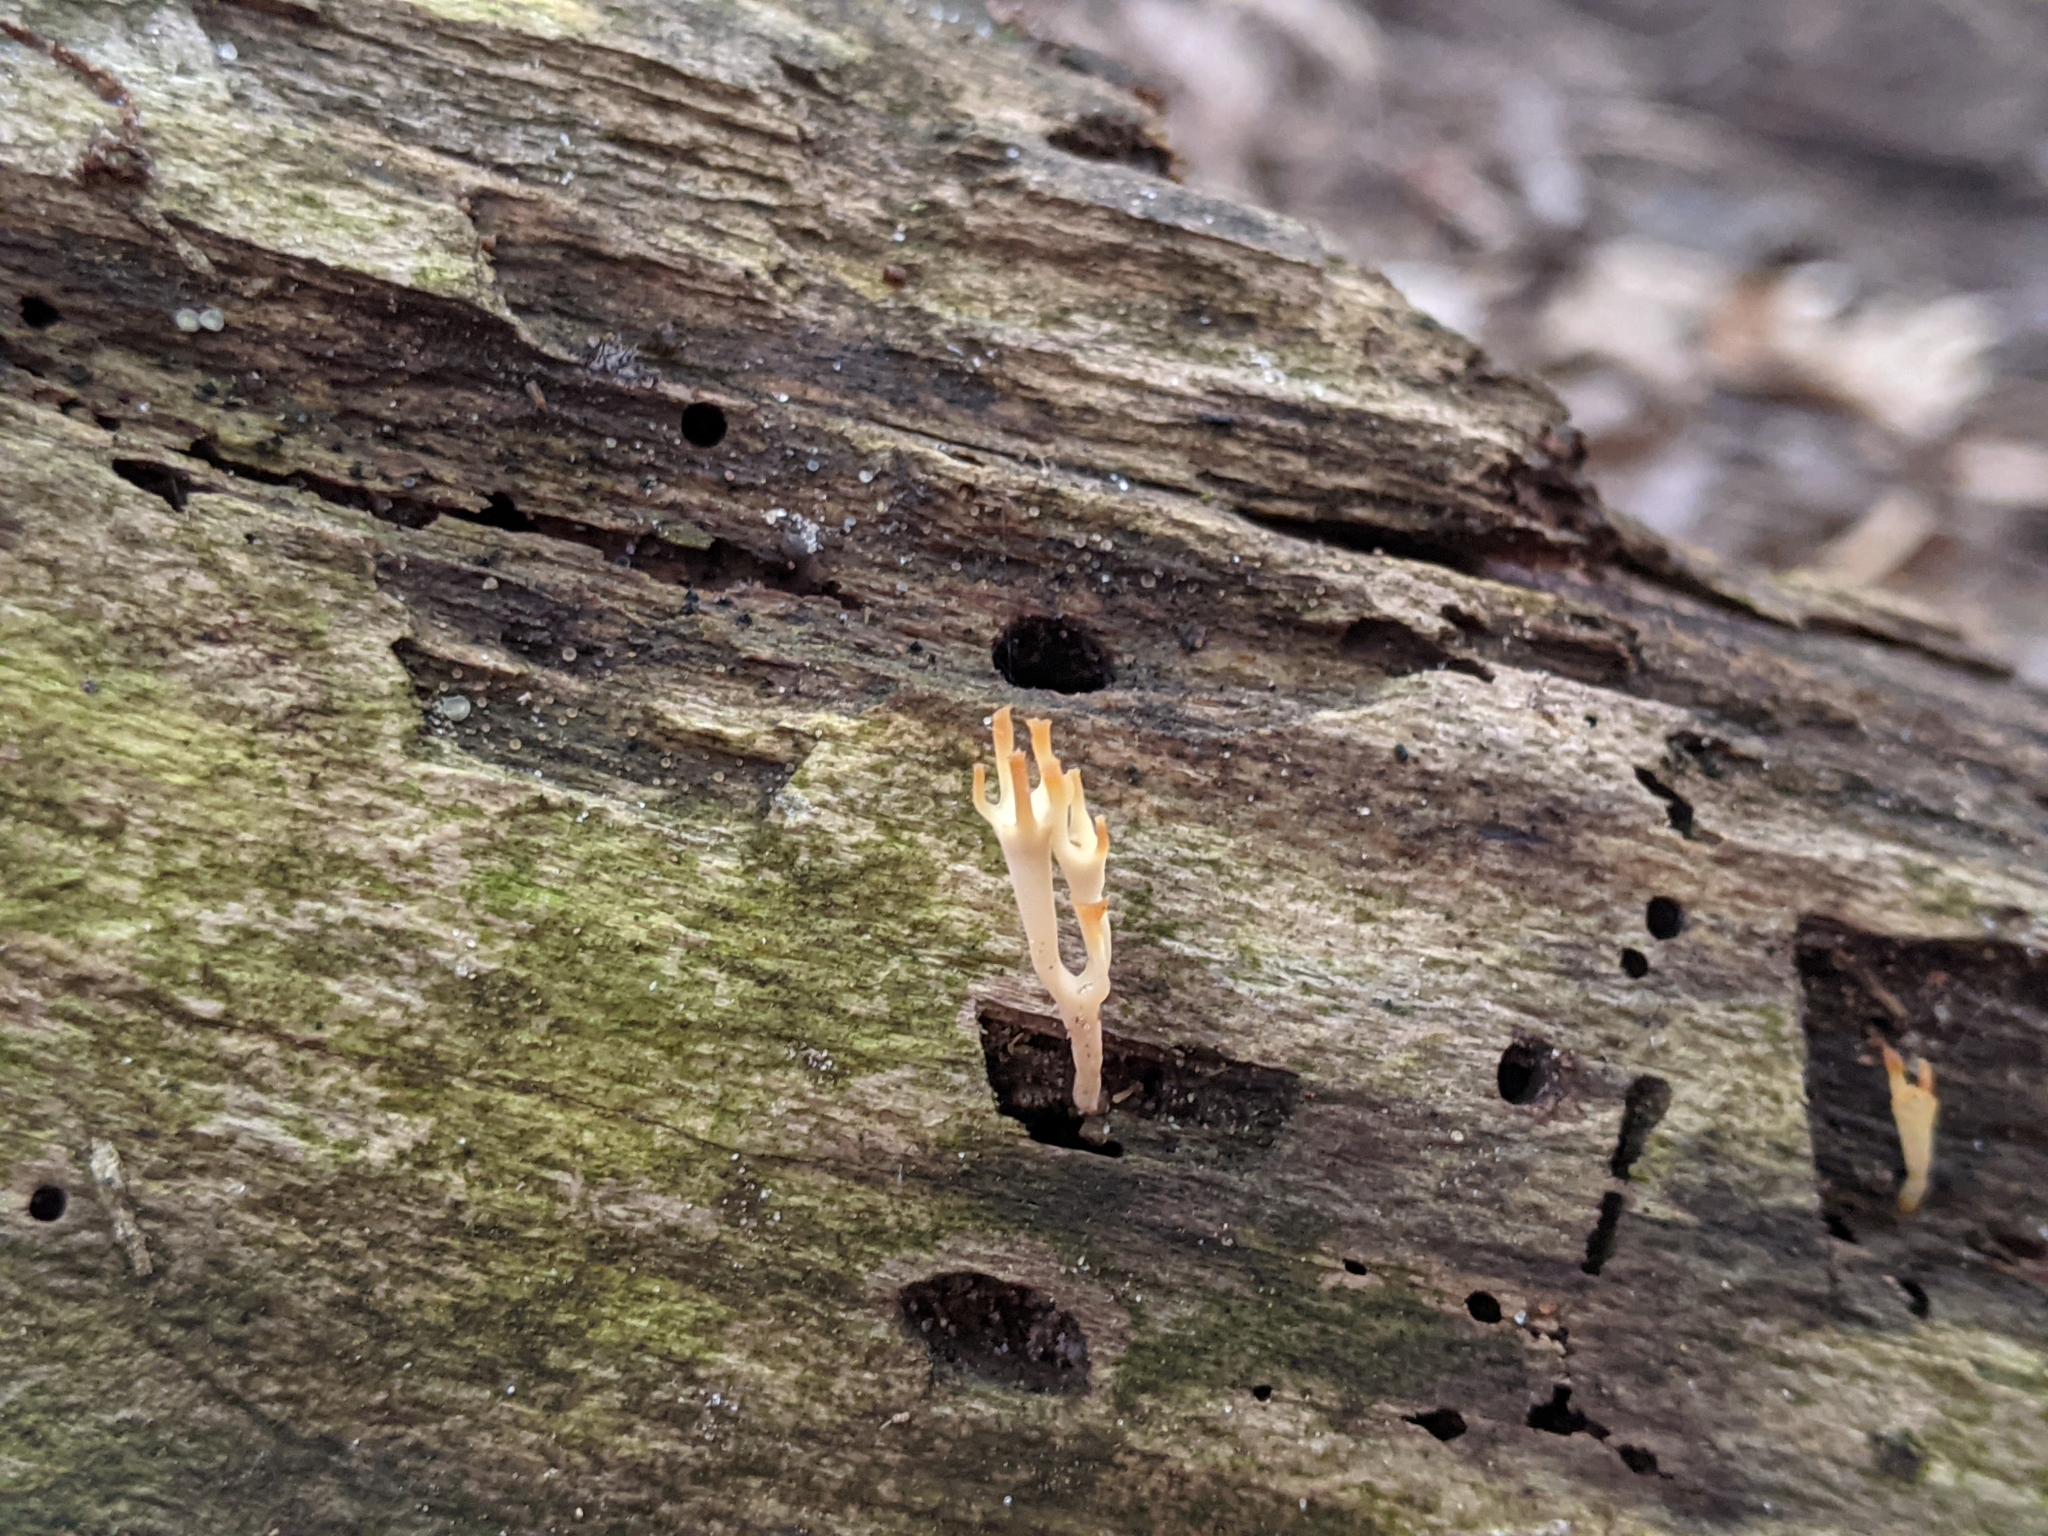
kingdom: Fungi
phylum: Basidiomycota
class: Agaricomycetes
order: Russulales
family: Auriscalpiaceae
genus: Artomyces
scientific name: Artomyces pyxidatus
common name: Crown-tipped coral fungus
